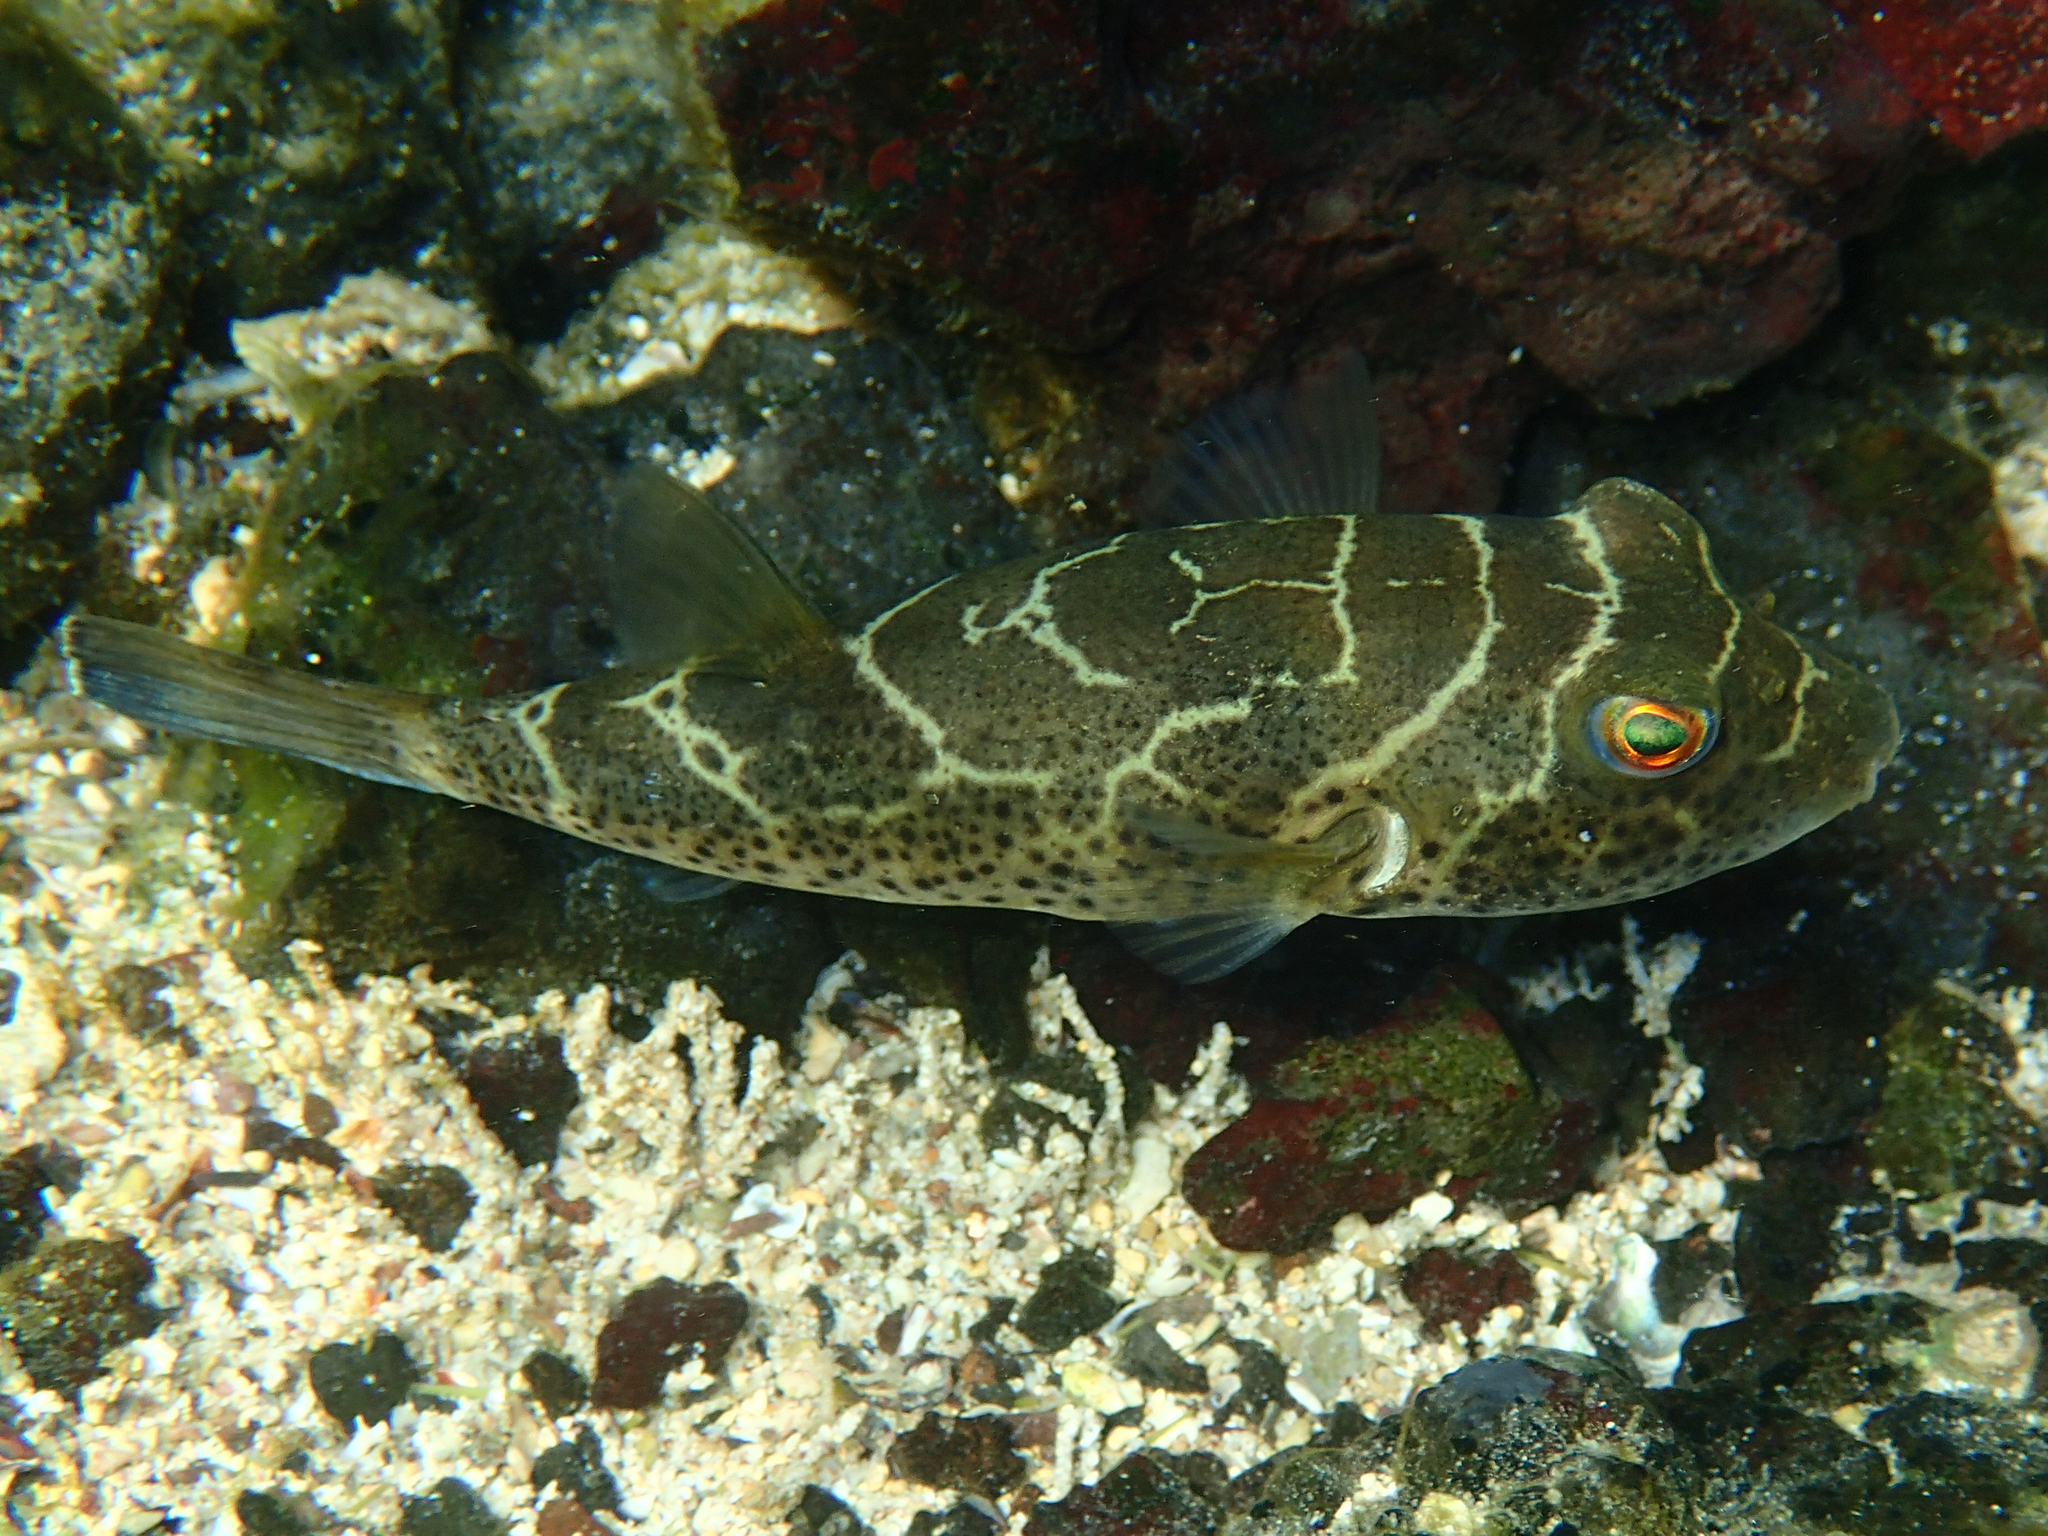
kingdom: Animalia
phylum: Chordata
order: Tetraodontiformes
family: Tetraodontidae
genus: Sphoeroides
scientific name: Sphoeroides annulatus
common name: Bullseye puffer
